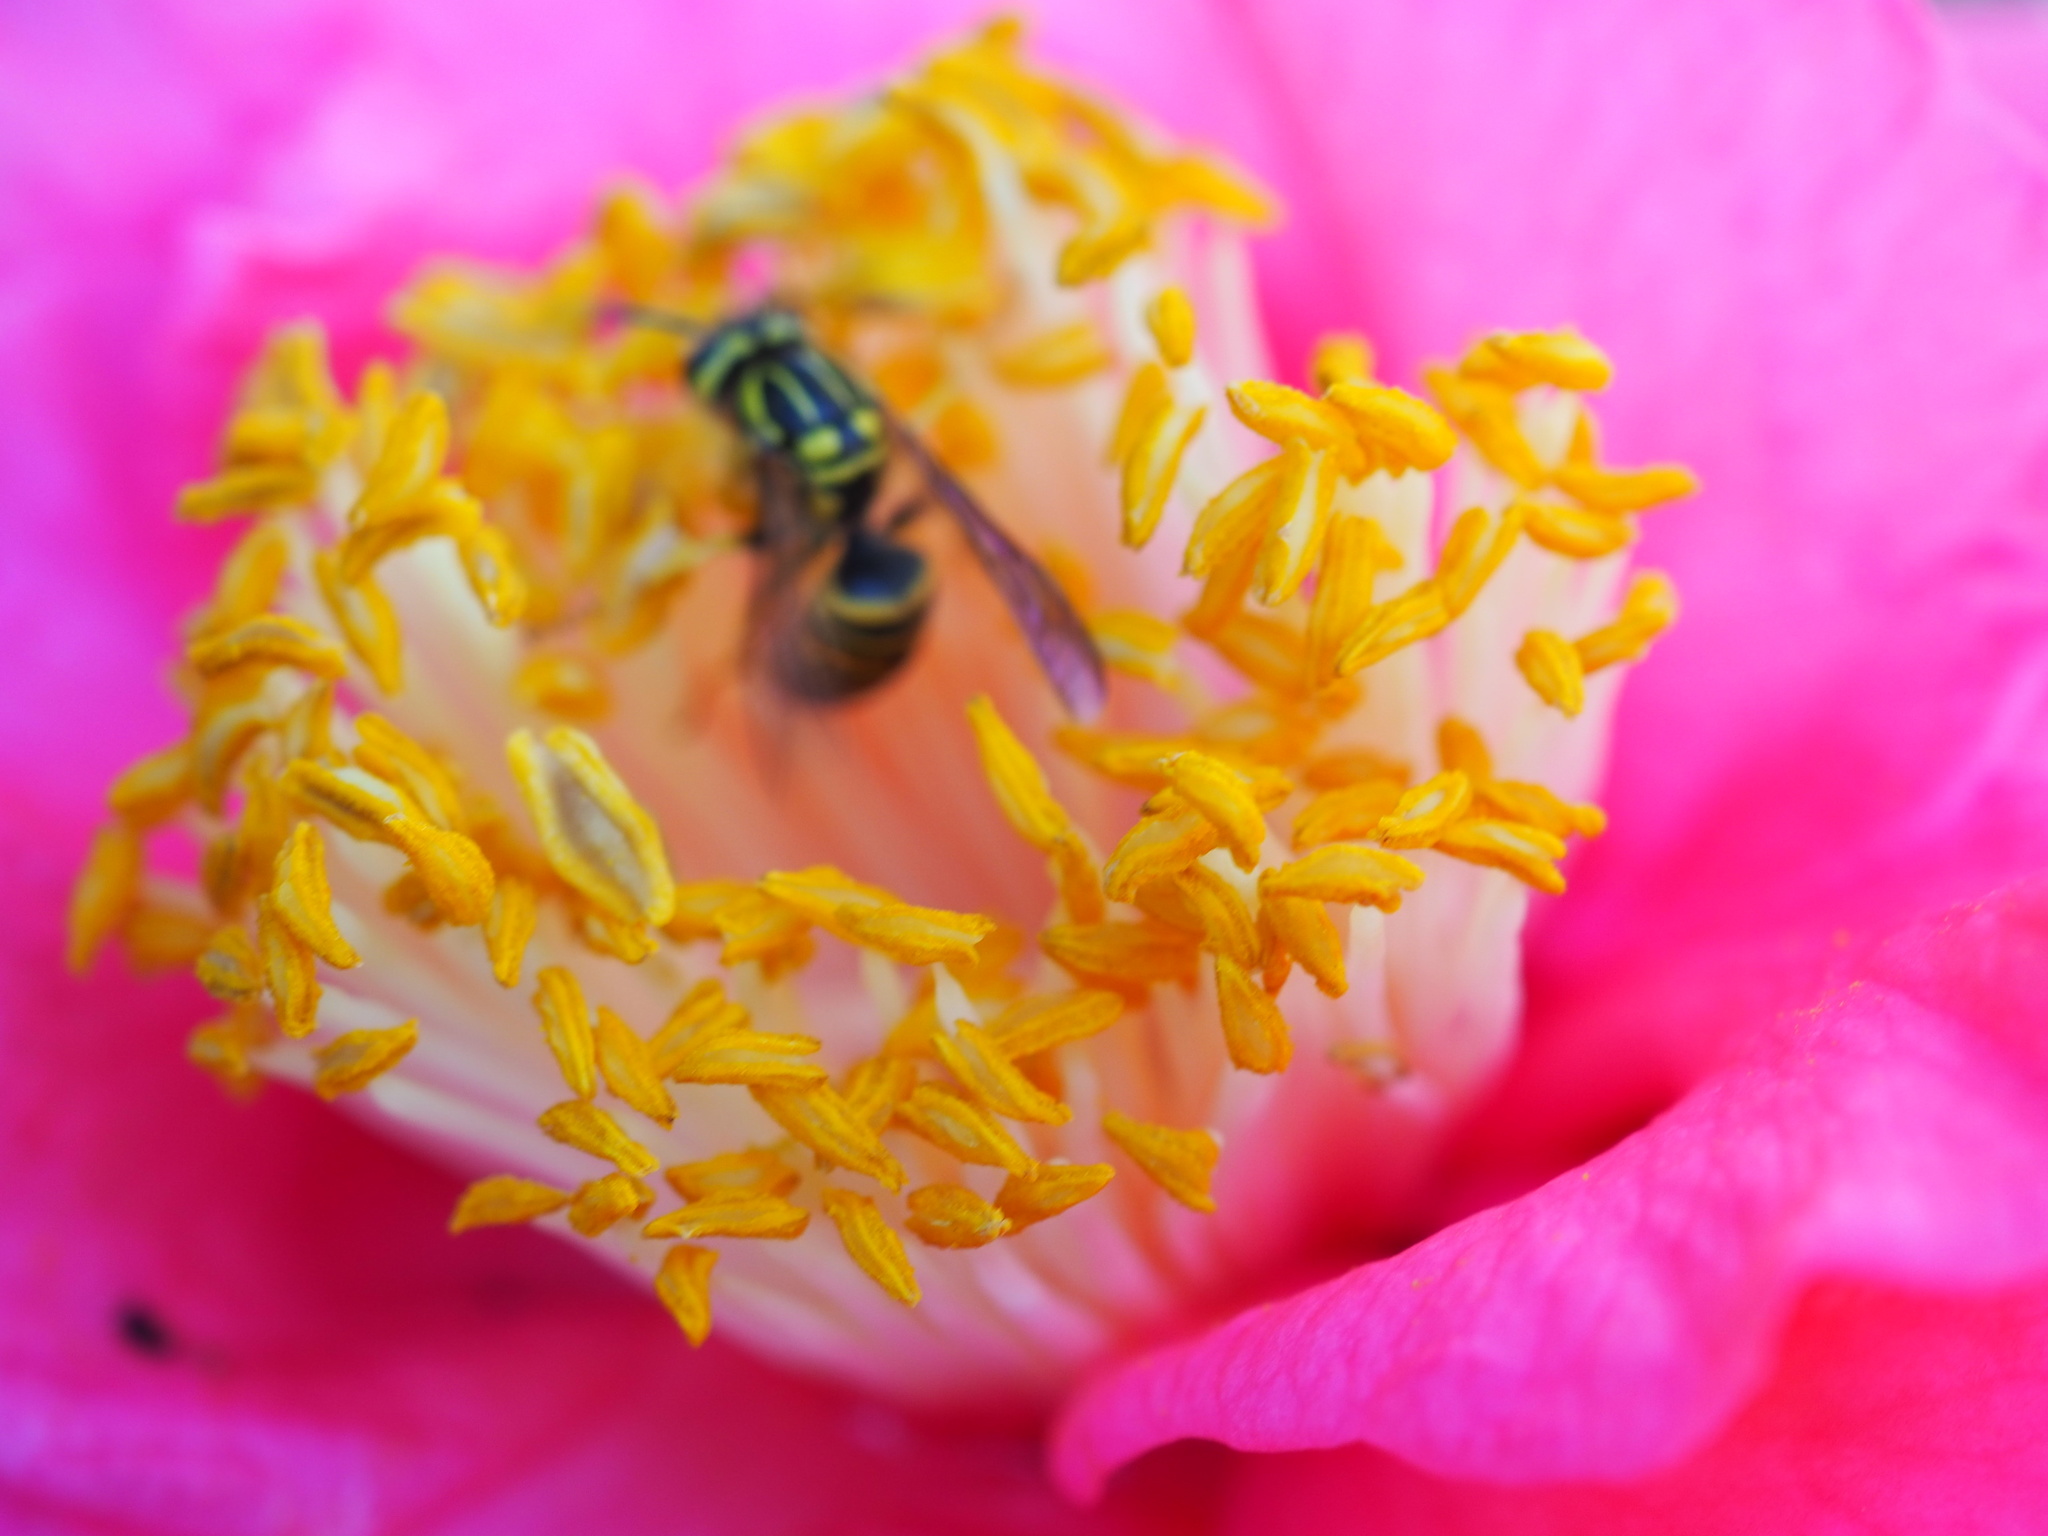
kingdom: Animalia
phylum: Arthropoda
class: Insecta
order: Hymenoptera
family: Vespidae
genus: Vespula
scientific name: Vespula squamosa
